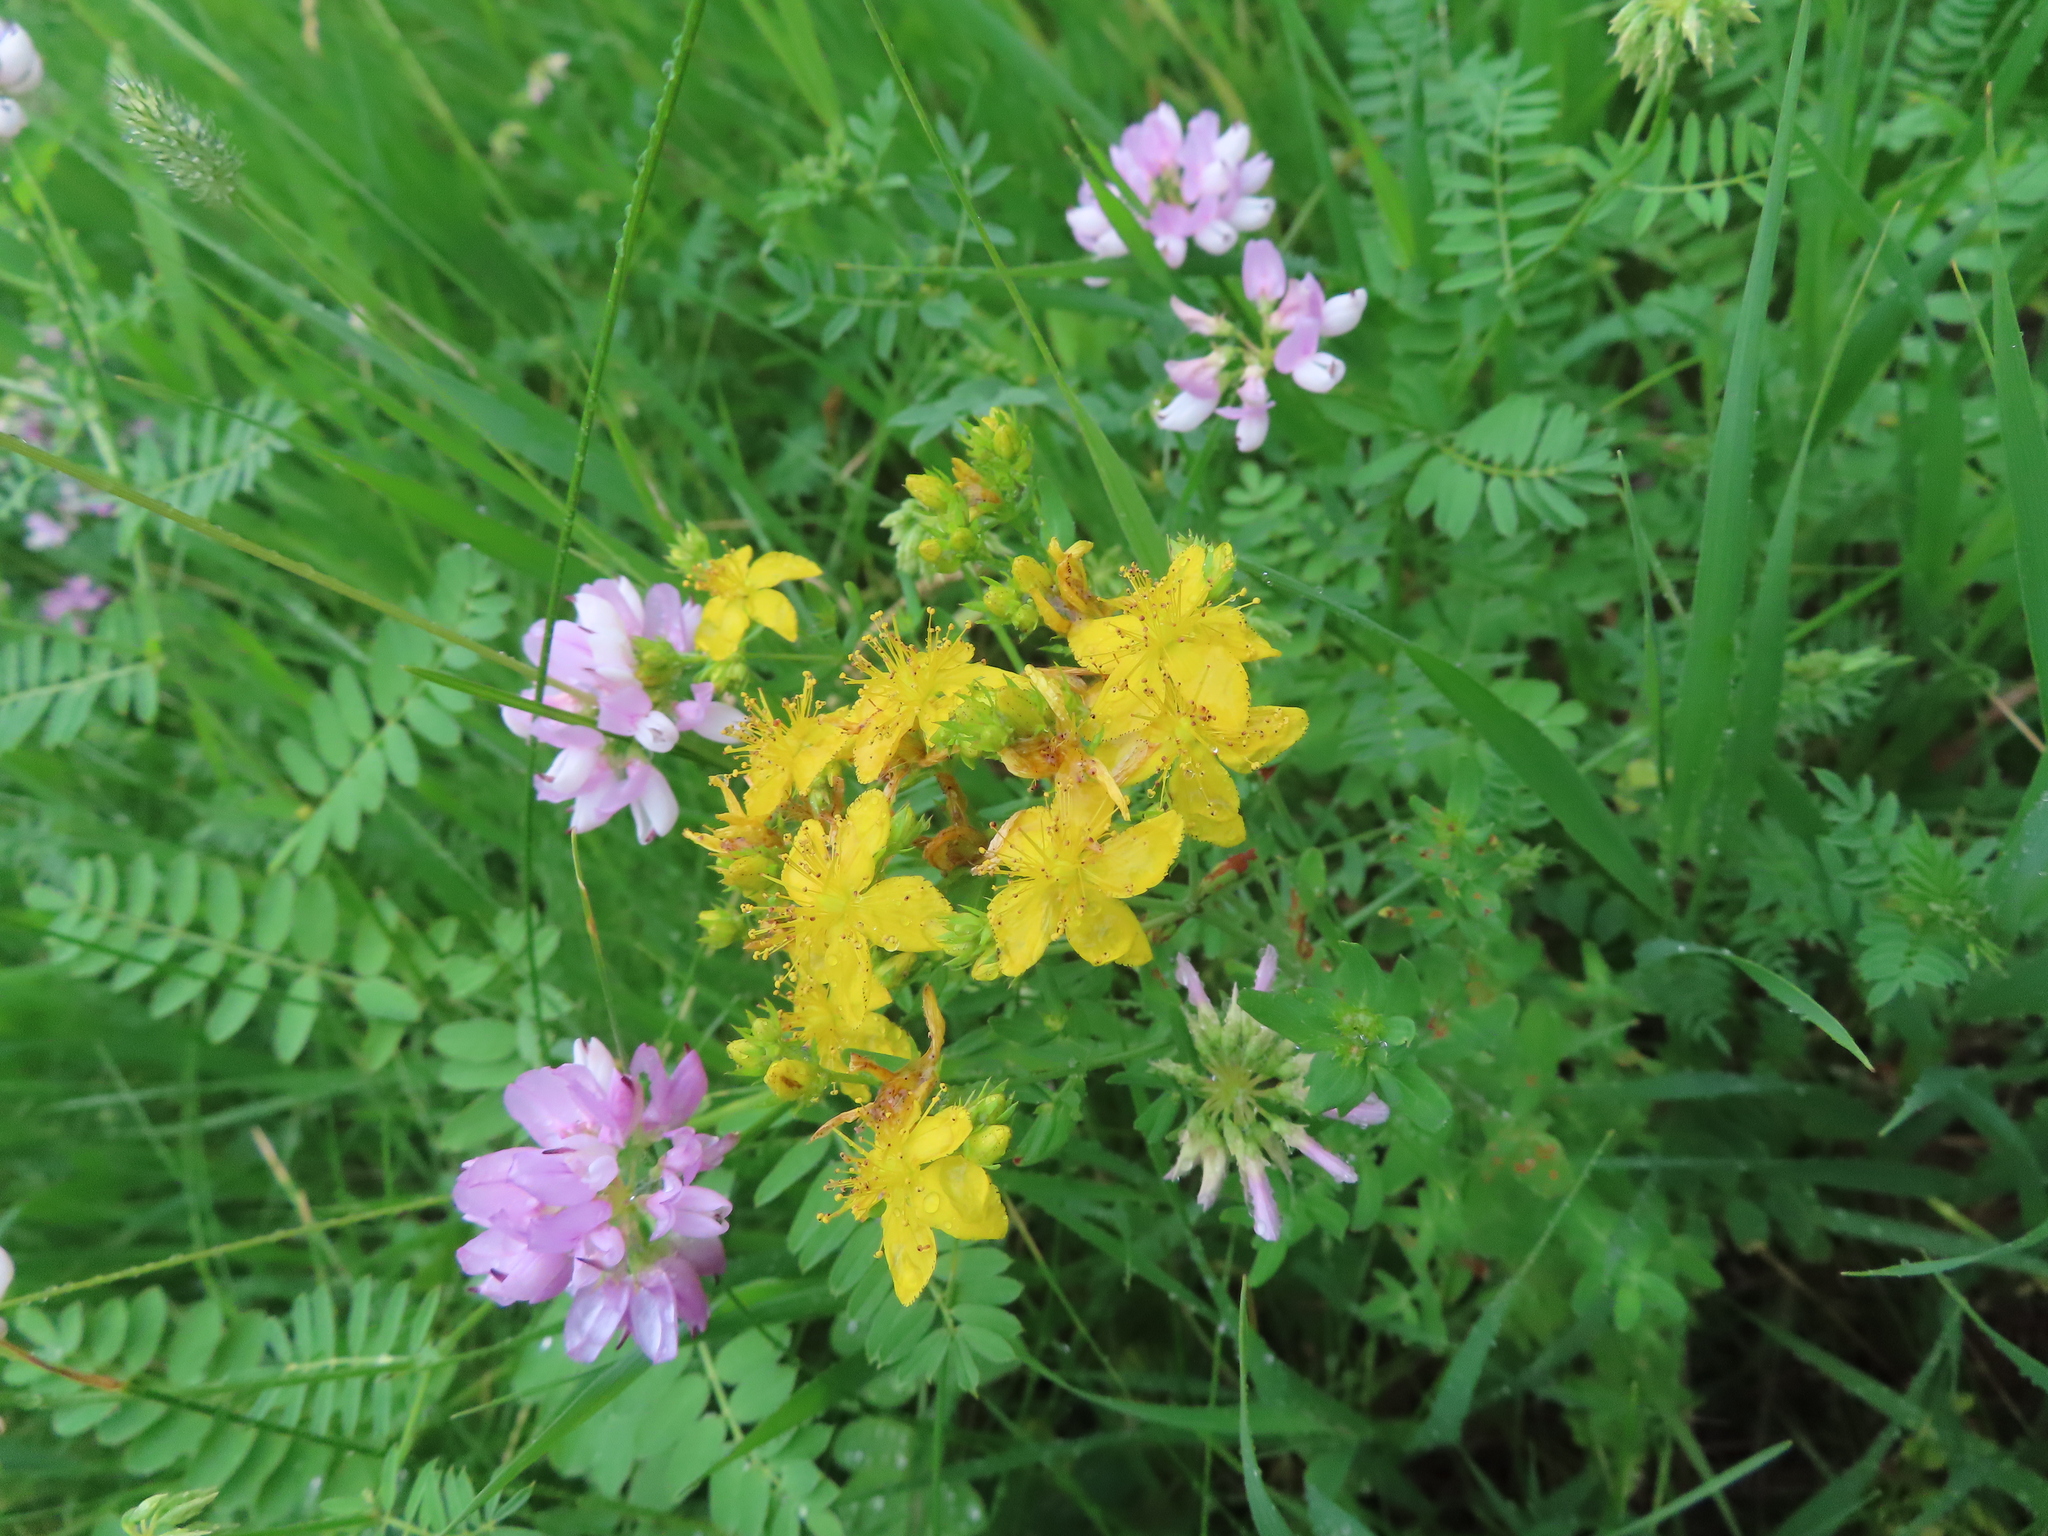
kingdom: Plantae
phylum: Tracheophyta
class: Magnoliopsida
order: Fabales
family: Fabaceae
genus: Coronilla
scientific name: Coronilla varia
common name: Crownvetch
